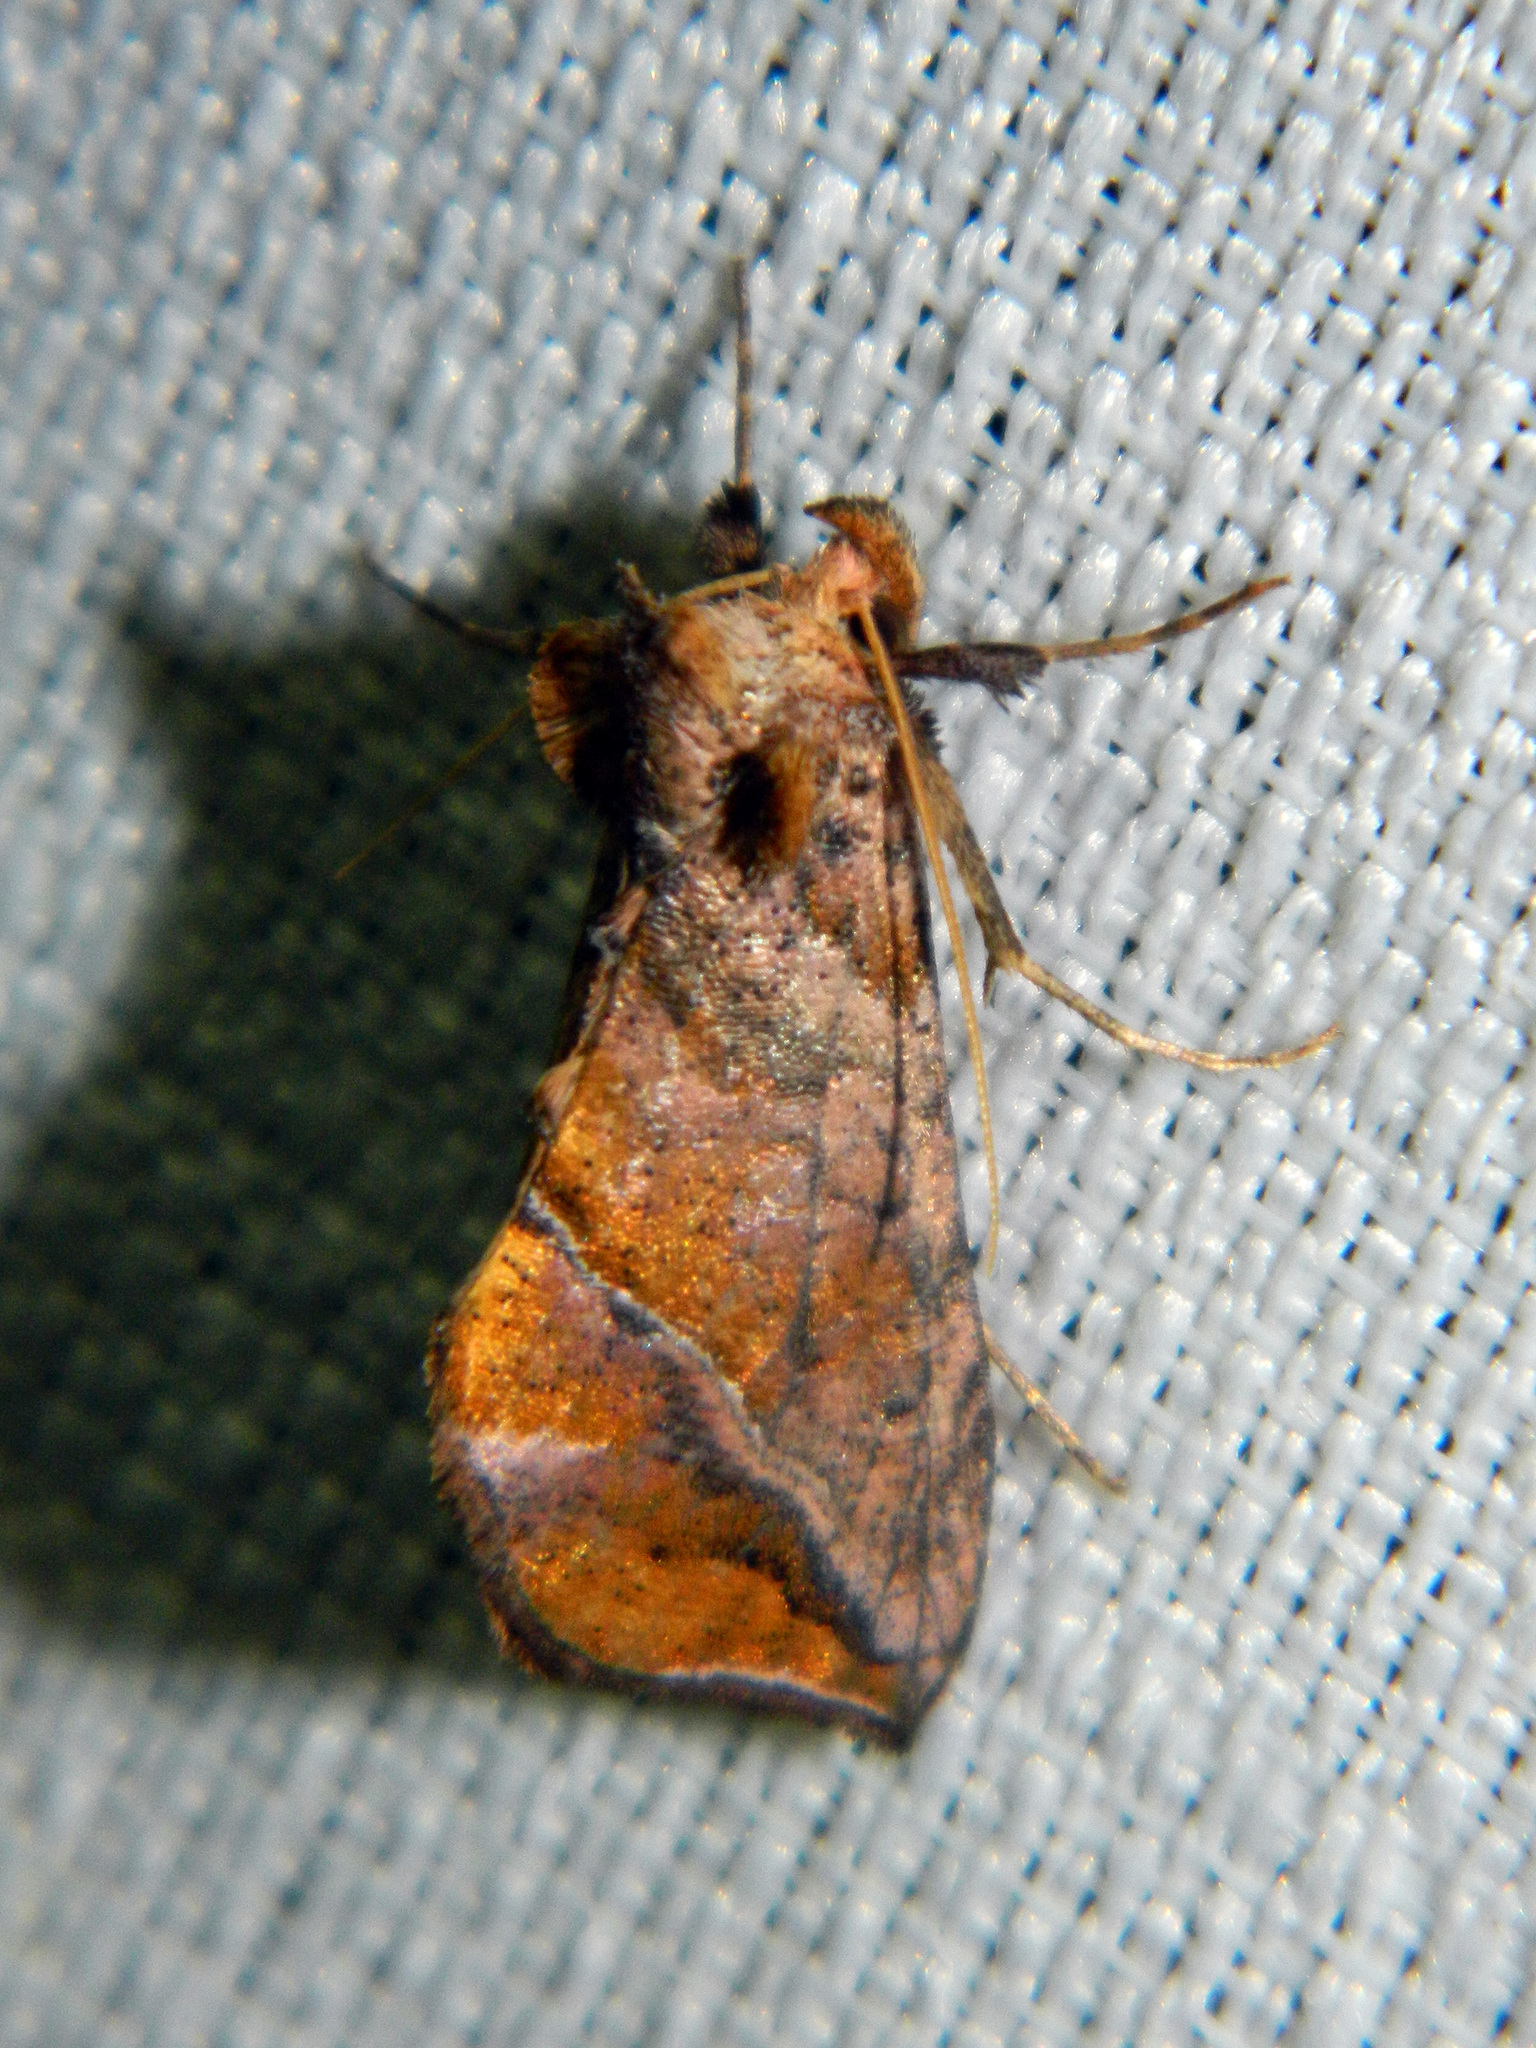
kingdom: Animalia
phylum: Arthropoda
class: Insecta
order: Lepidoptera
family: Noctuidae
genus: Pseudeva
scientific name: Pseudeva purpurigera
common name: Straight-lined looper moth
